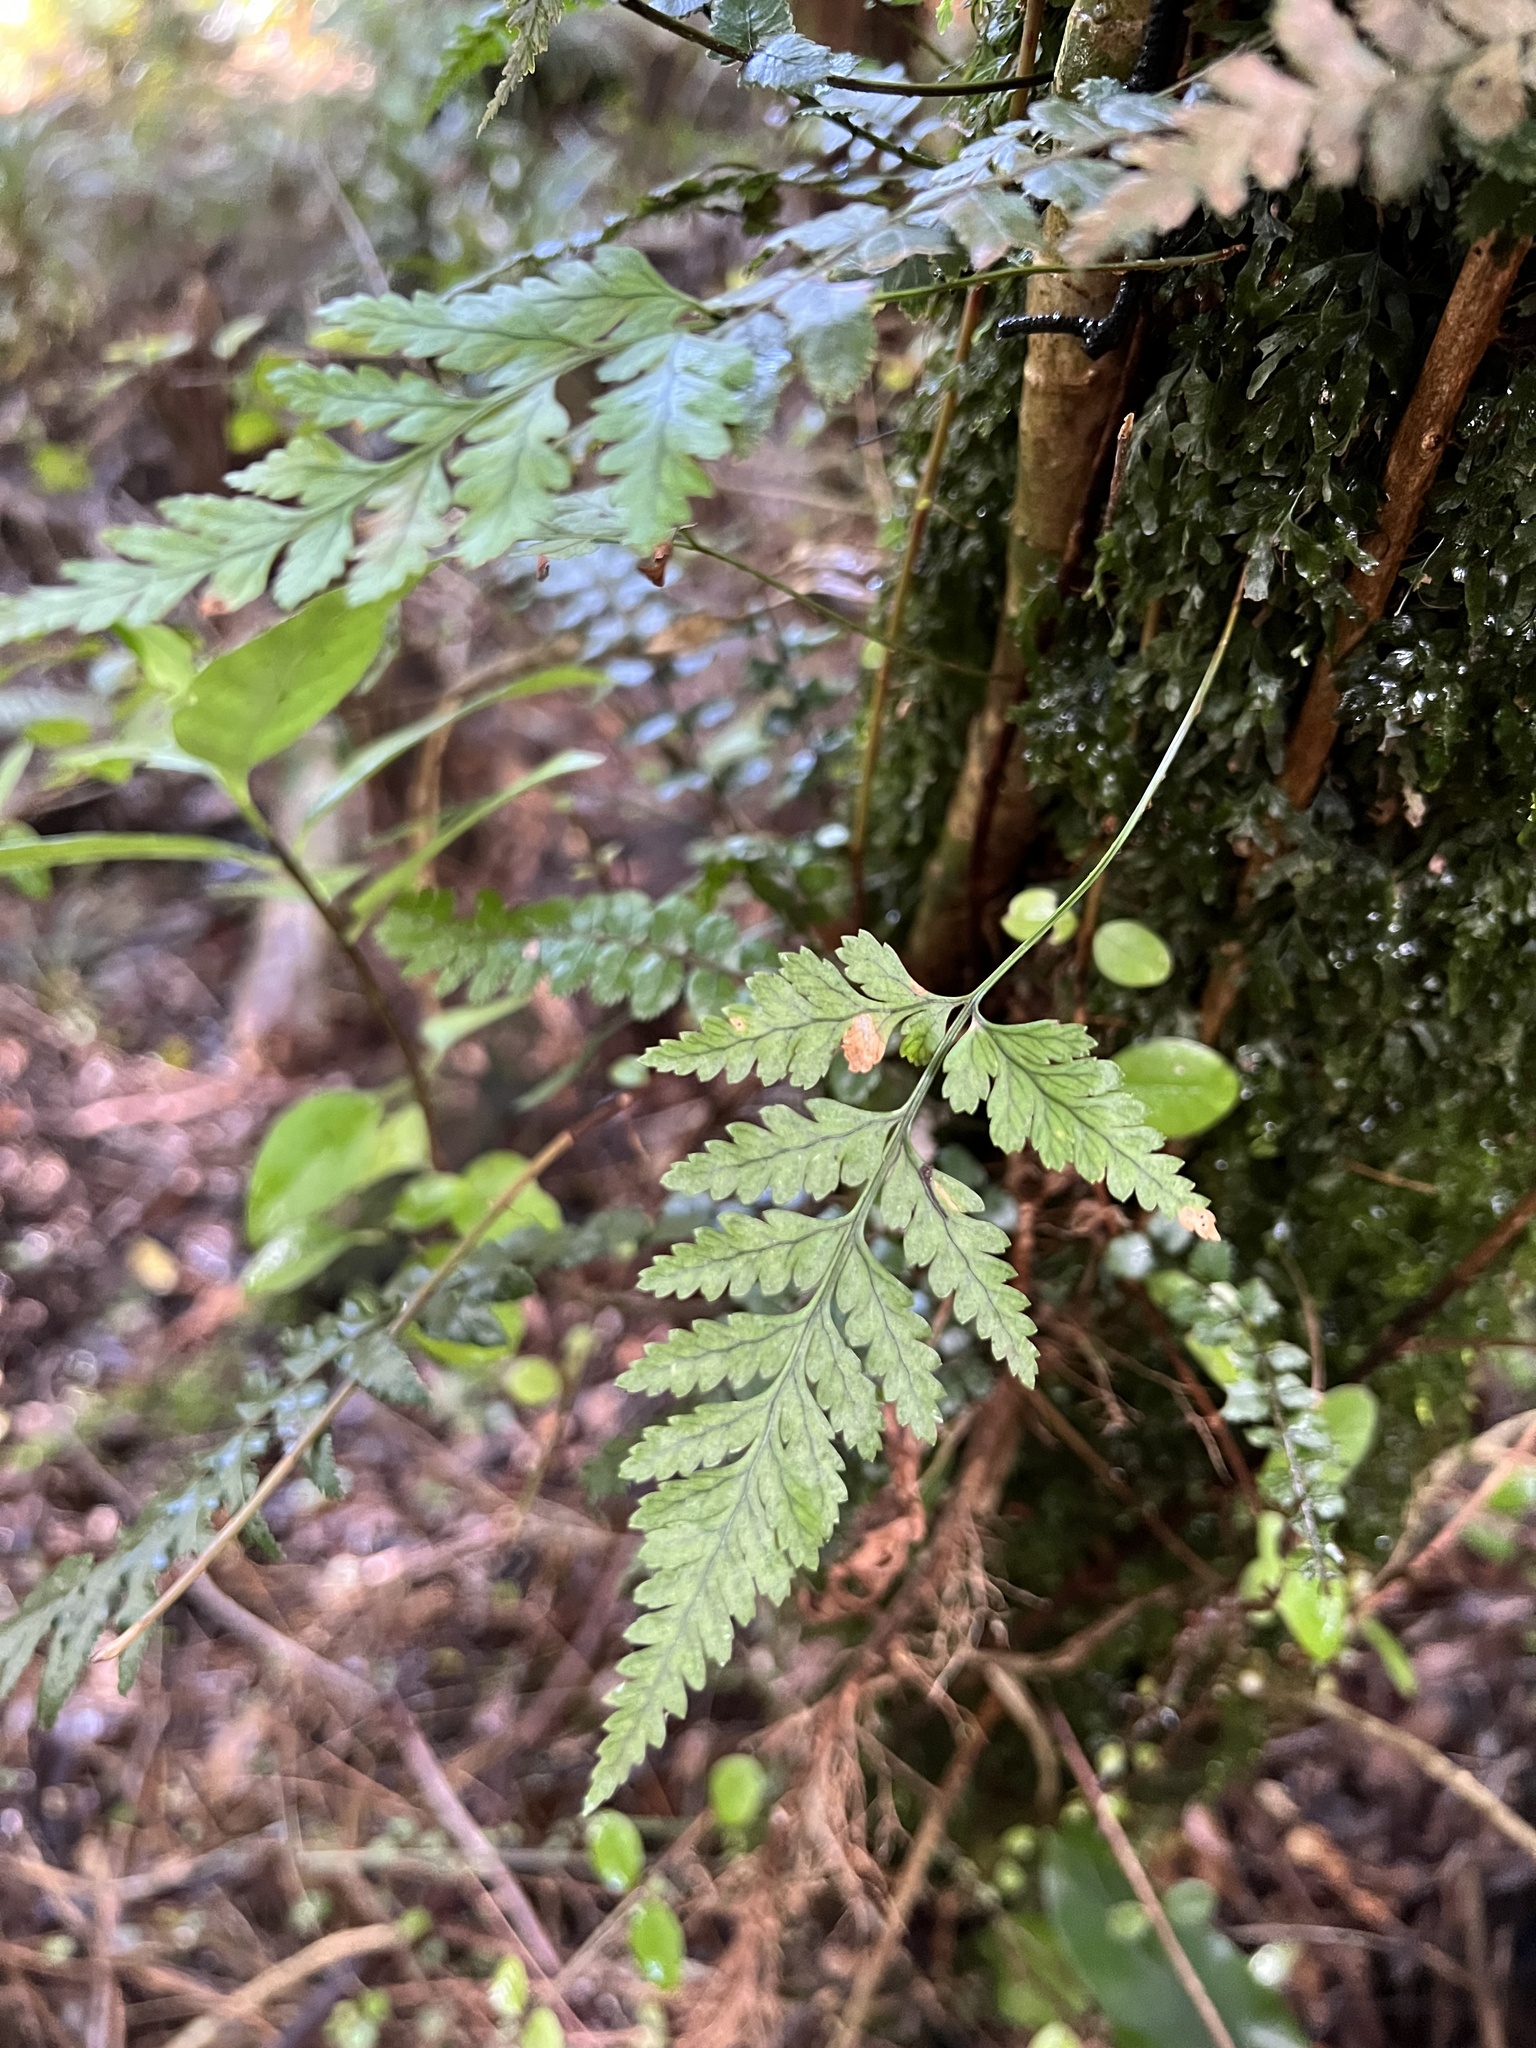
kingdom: Plantae
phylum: Tracheophyta
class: Polypodiopsida
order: Polypodiales
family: Dryopteridaceae
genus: Rumohra
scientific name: Rumohra adiantiformis
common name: Leather fern
